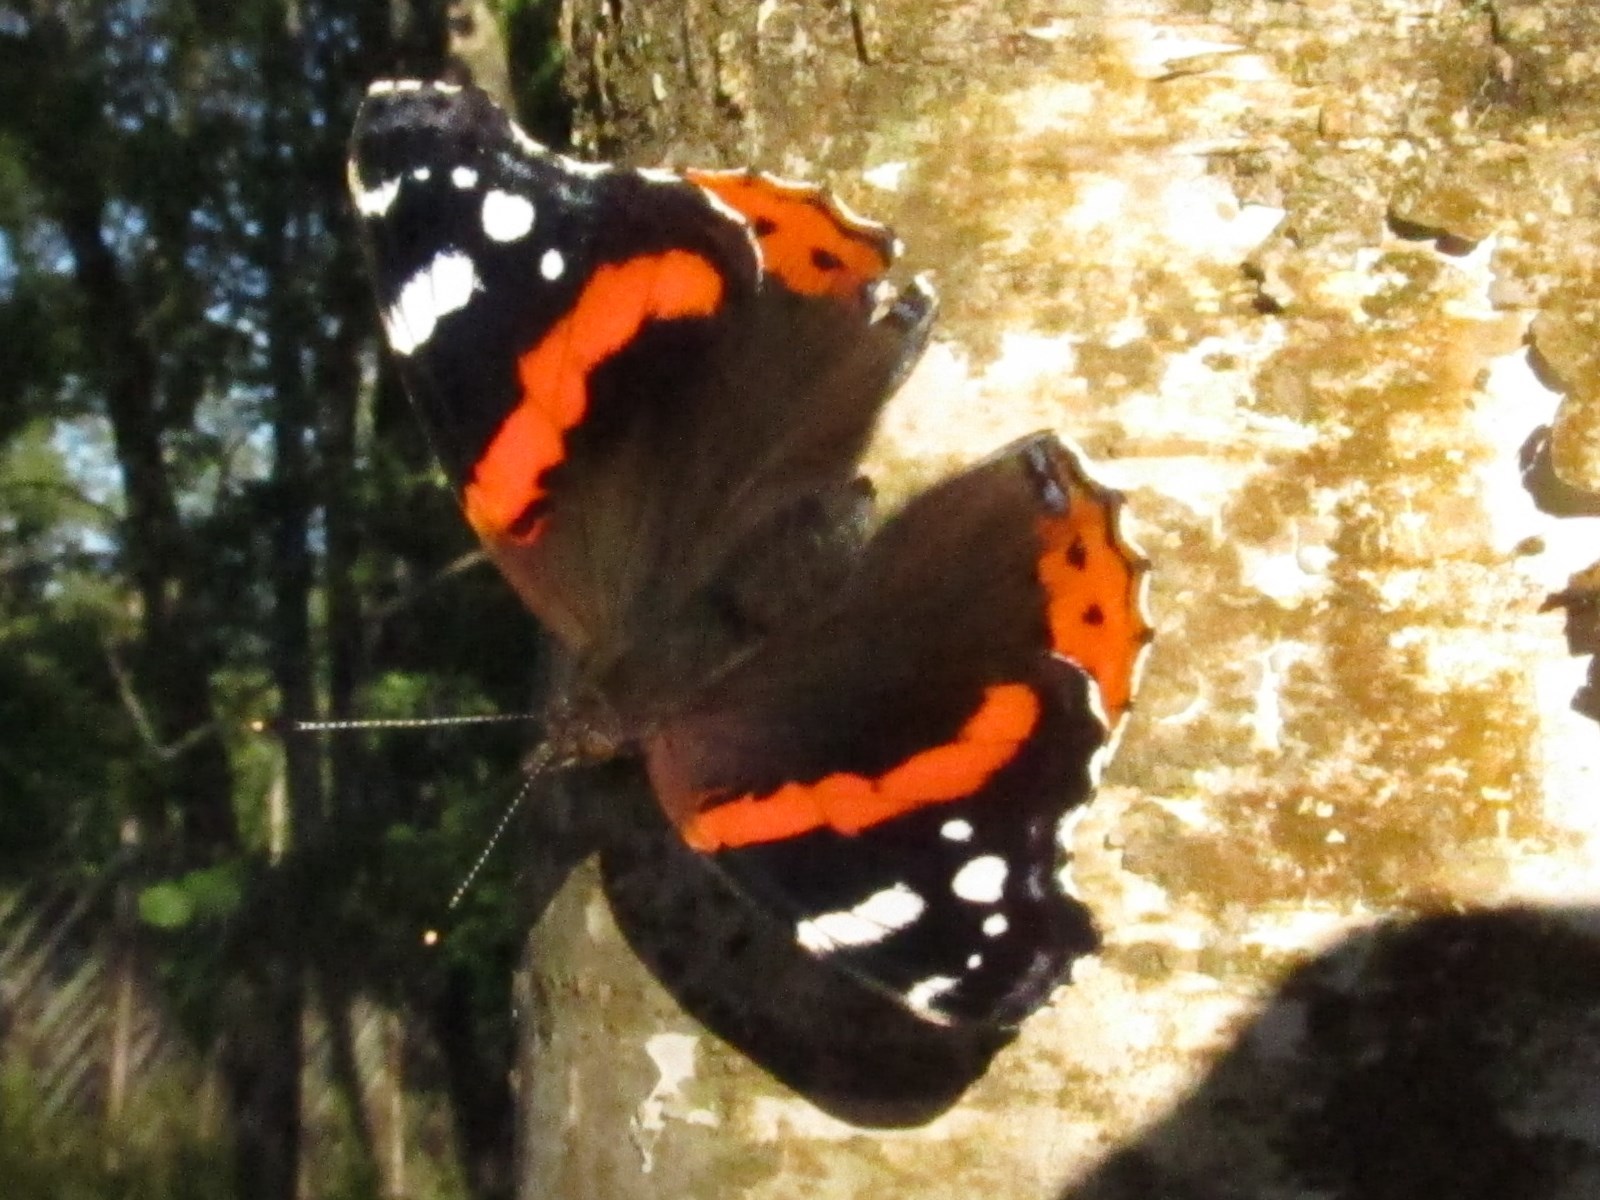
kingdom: Animalia
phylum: Arthropoda
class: Insecta
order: Lepidoptera
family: Nymphalidae
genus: Vanessa
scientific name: Vanessa atalanta
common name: Red admiral
